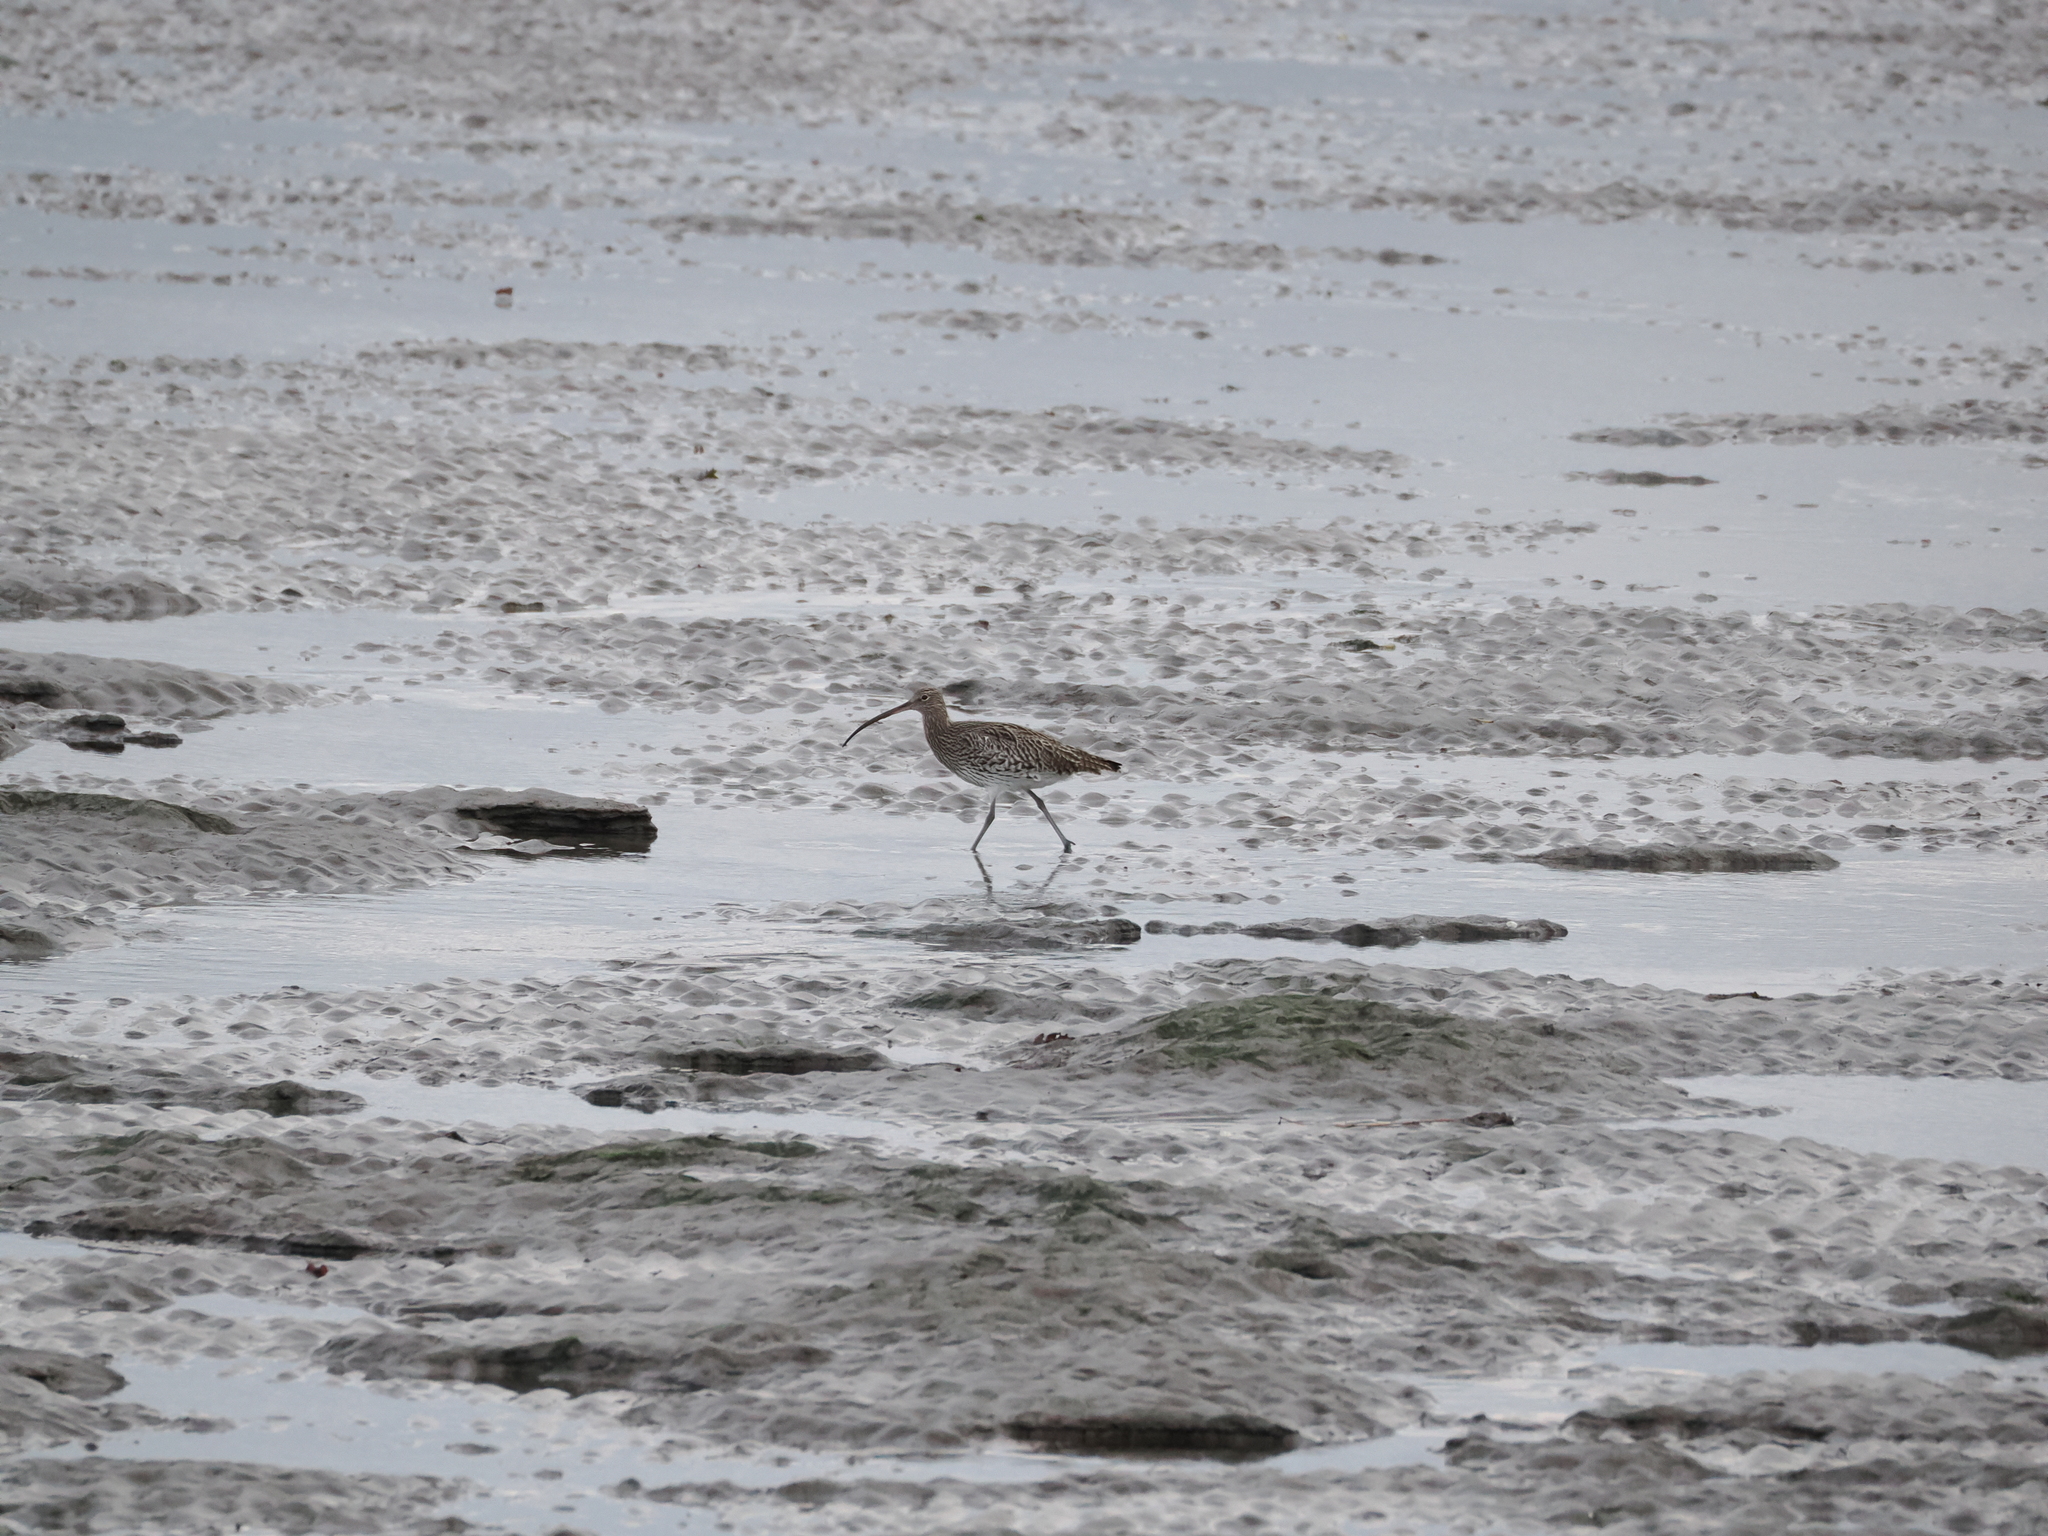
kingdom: Animalia
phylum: Chordata
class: Aves
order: Charadriiformes
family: Scolopacidae
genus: Numenius
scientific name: Numenius arquata
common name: Eurasian curlew
